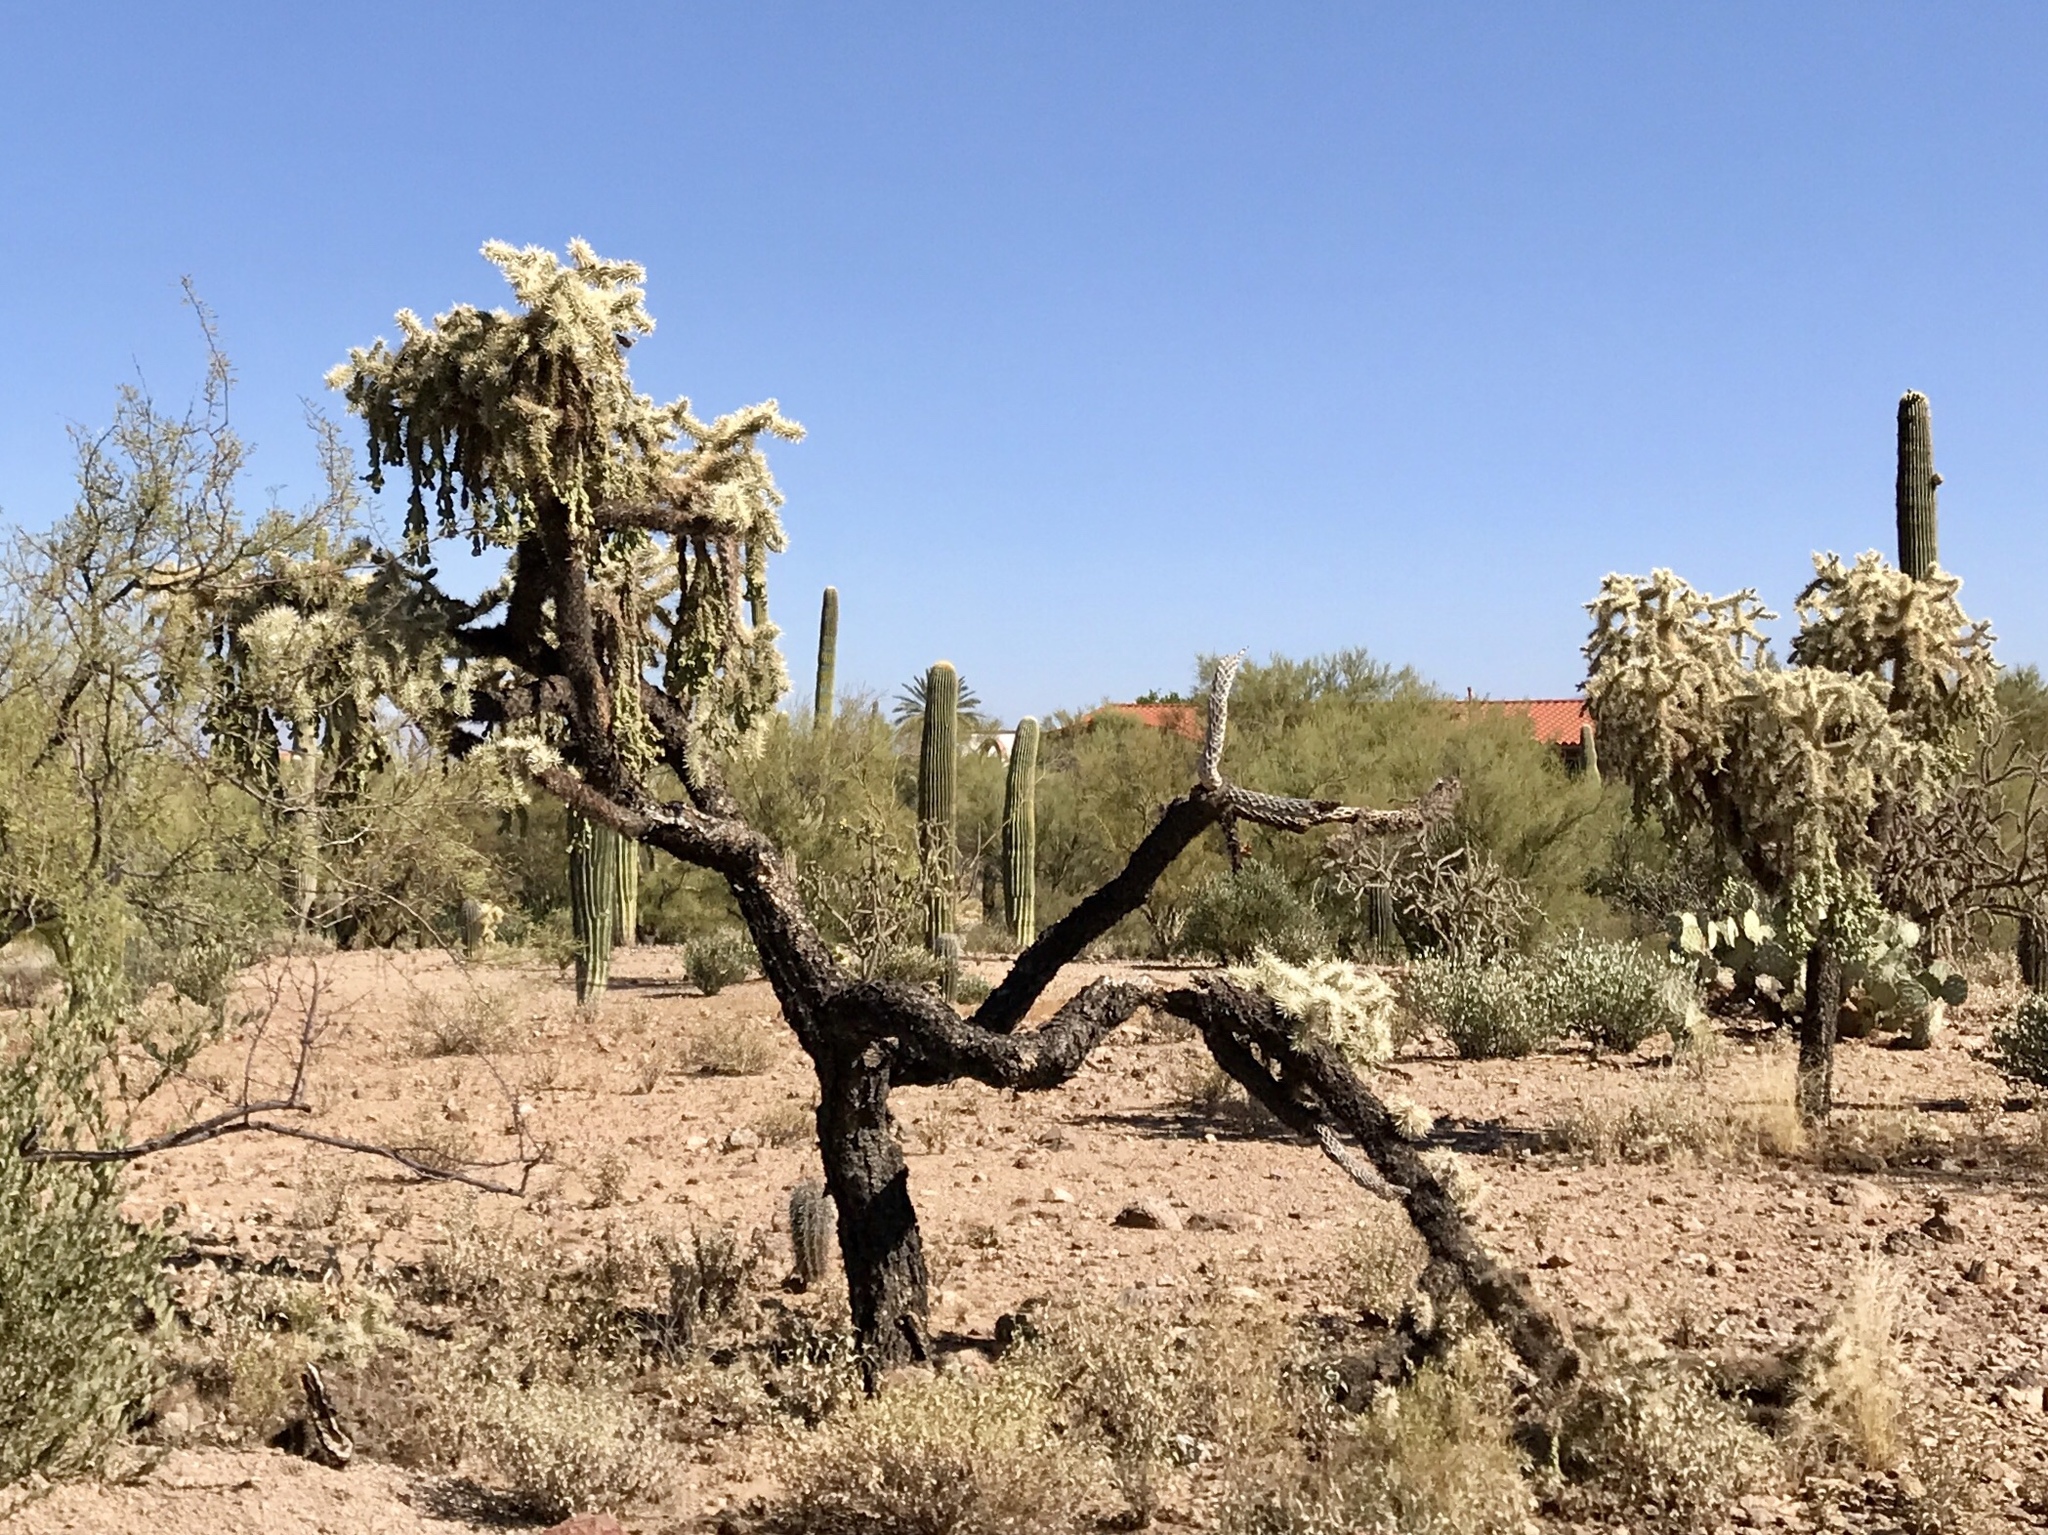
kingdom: Plantae
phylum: Tracheophyta
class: Magnoliopsida
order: Caryophyllales
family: Cactaceae
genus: Cylindropuntia
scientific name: Cylindropuntia fulgida
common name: Jumping cholla
